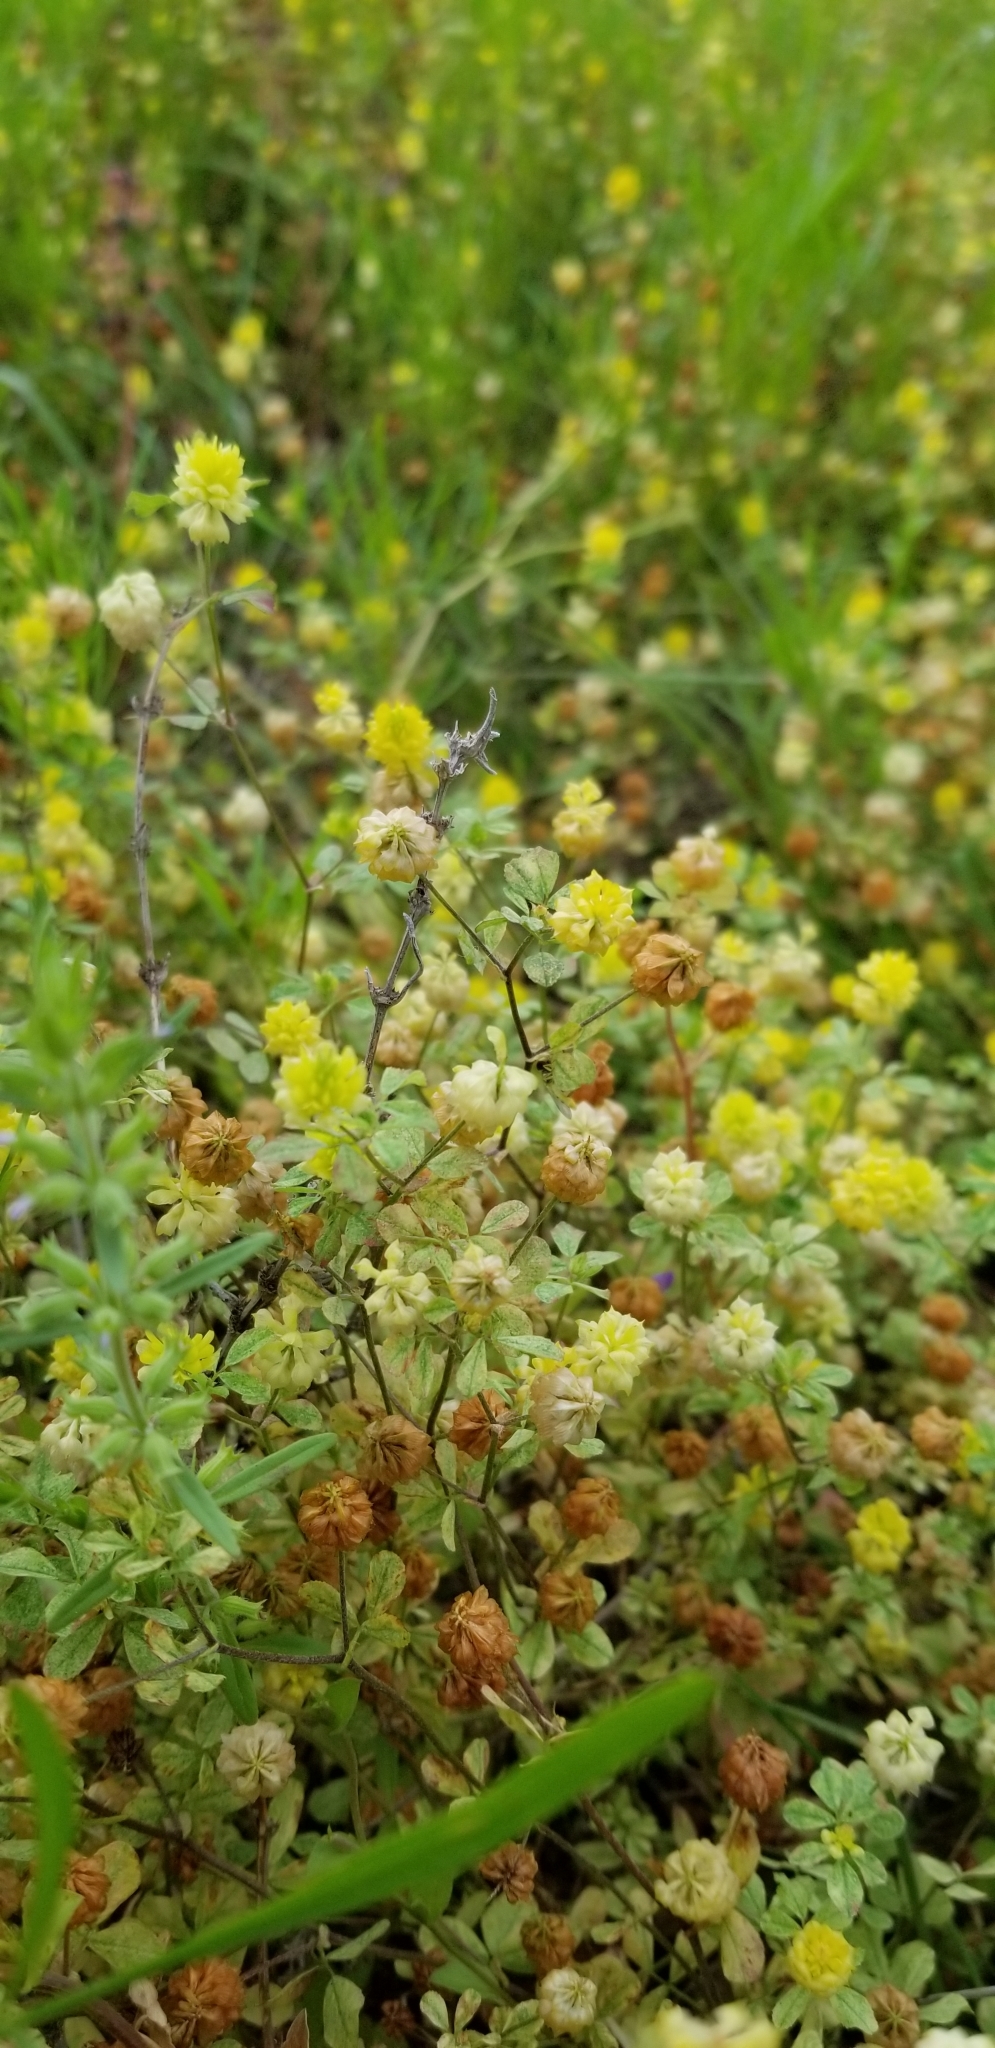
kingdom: Plantae
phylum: Tracheophyta
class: Magnoliopsida
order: Fabales
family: Fabaceae
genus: Trifolium
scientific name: Trifolium campestre
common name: Field clover
